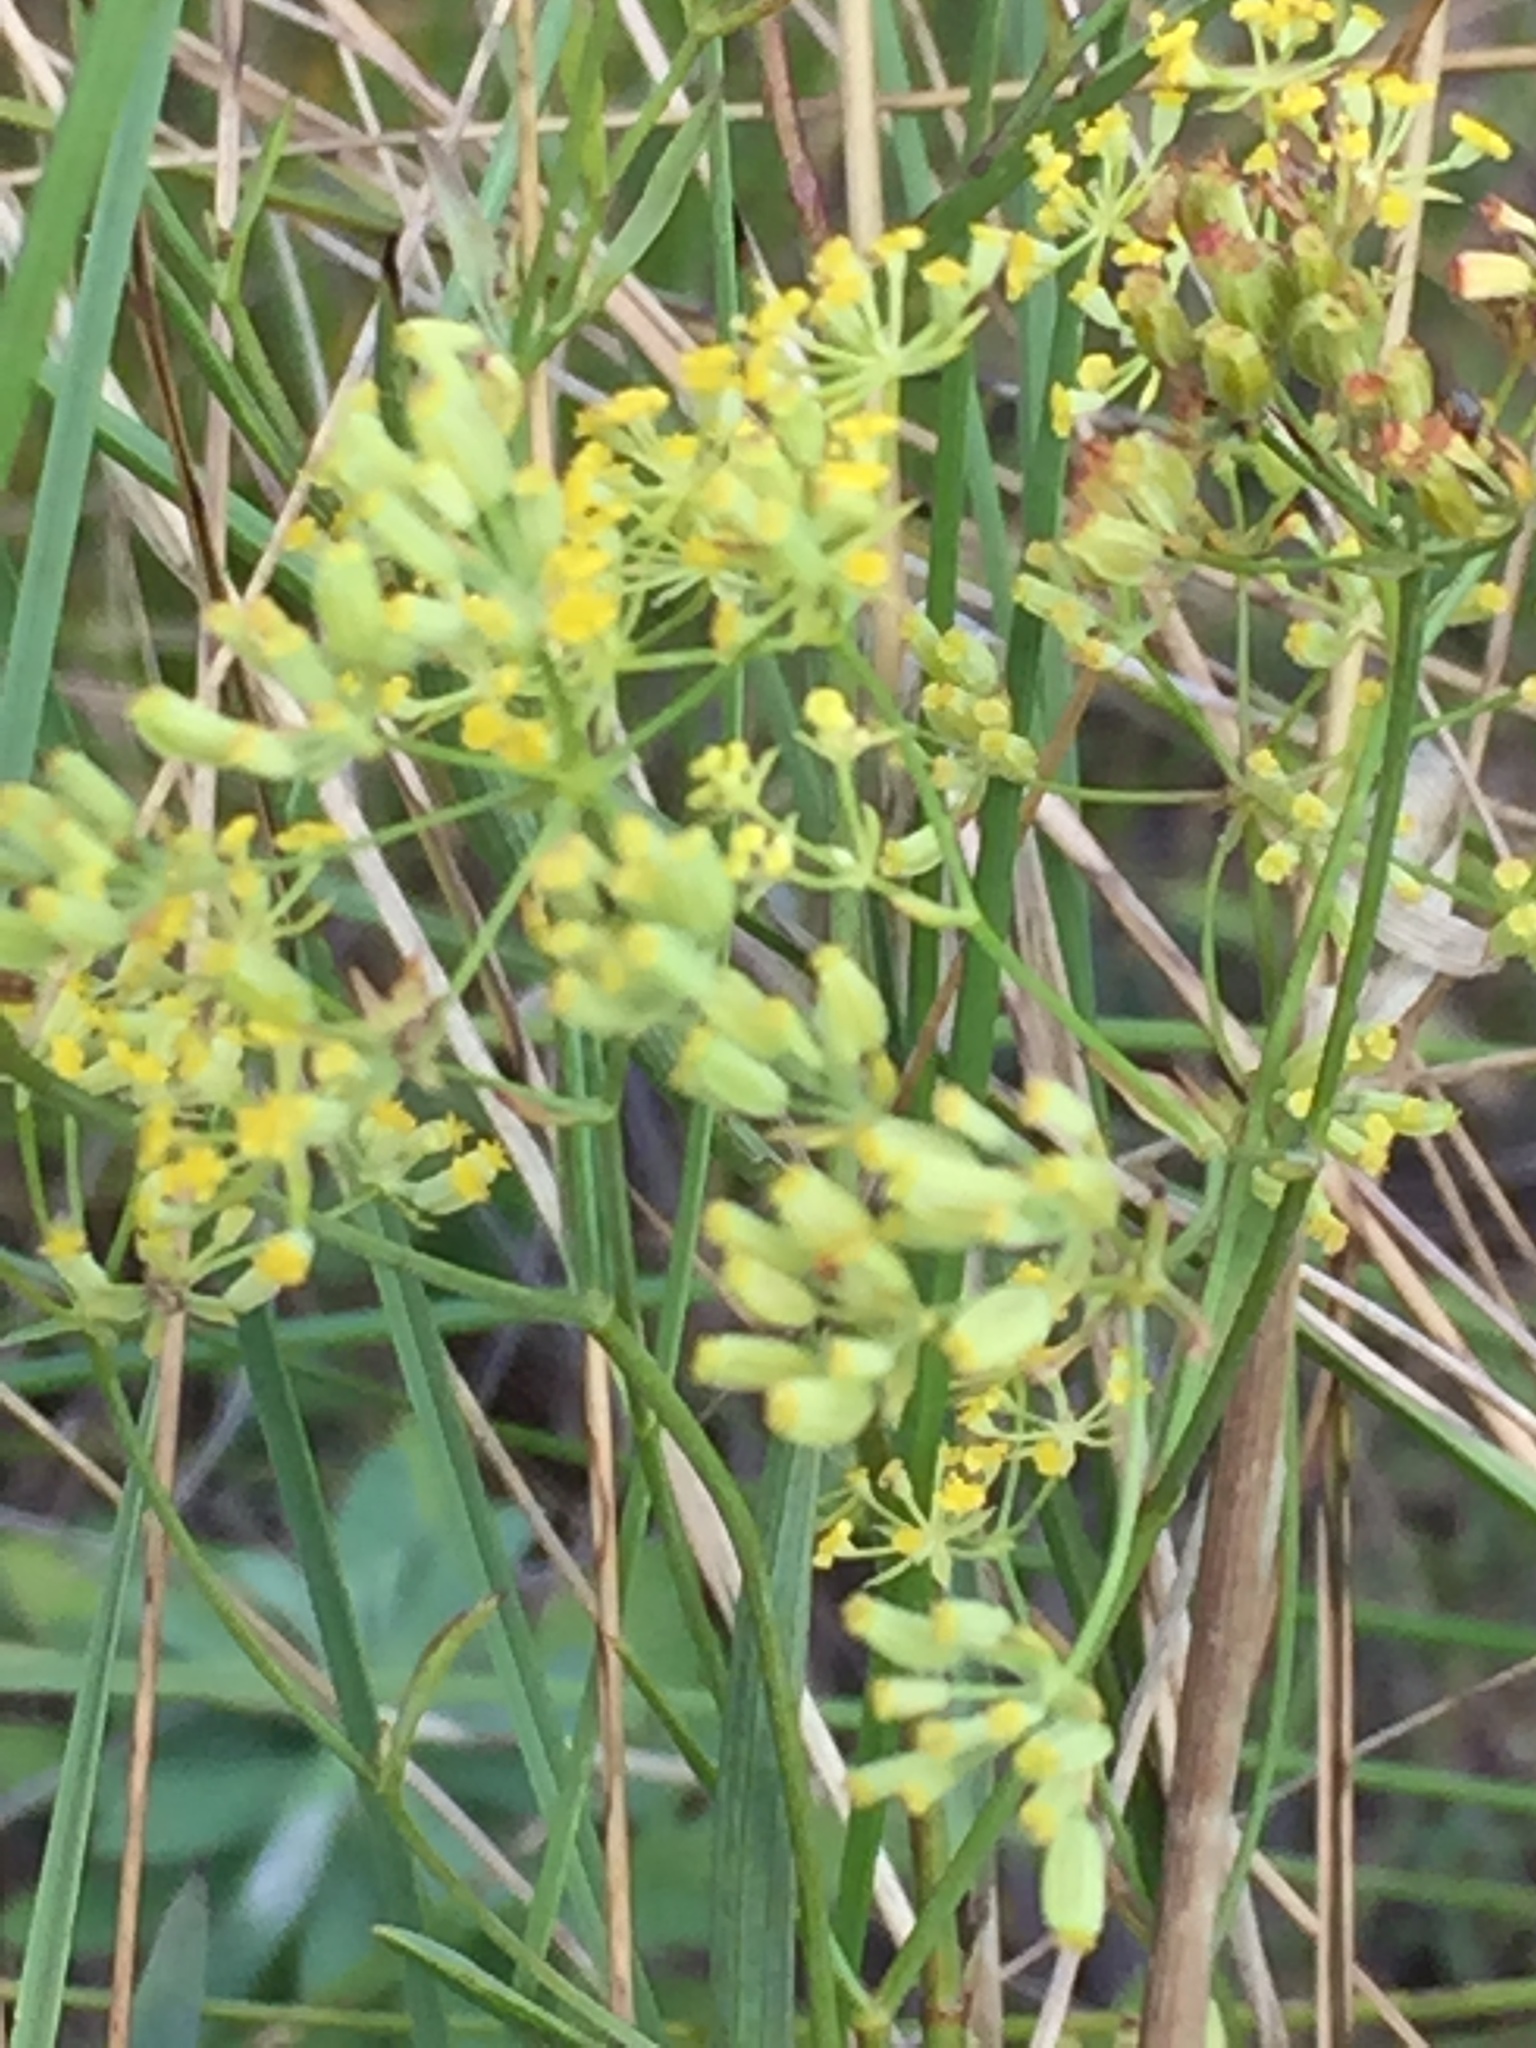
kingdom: Plantae
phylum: Tracheophyta
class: Magnoliopsida
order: Apiales
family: Apiaceae
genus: Bupleurum
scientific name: Bupleurum falcatum
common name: Sickle-leaved hare's-ear
